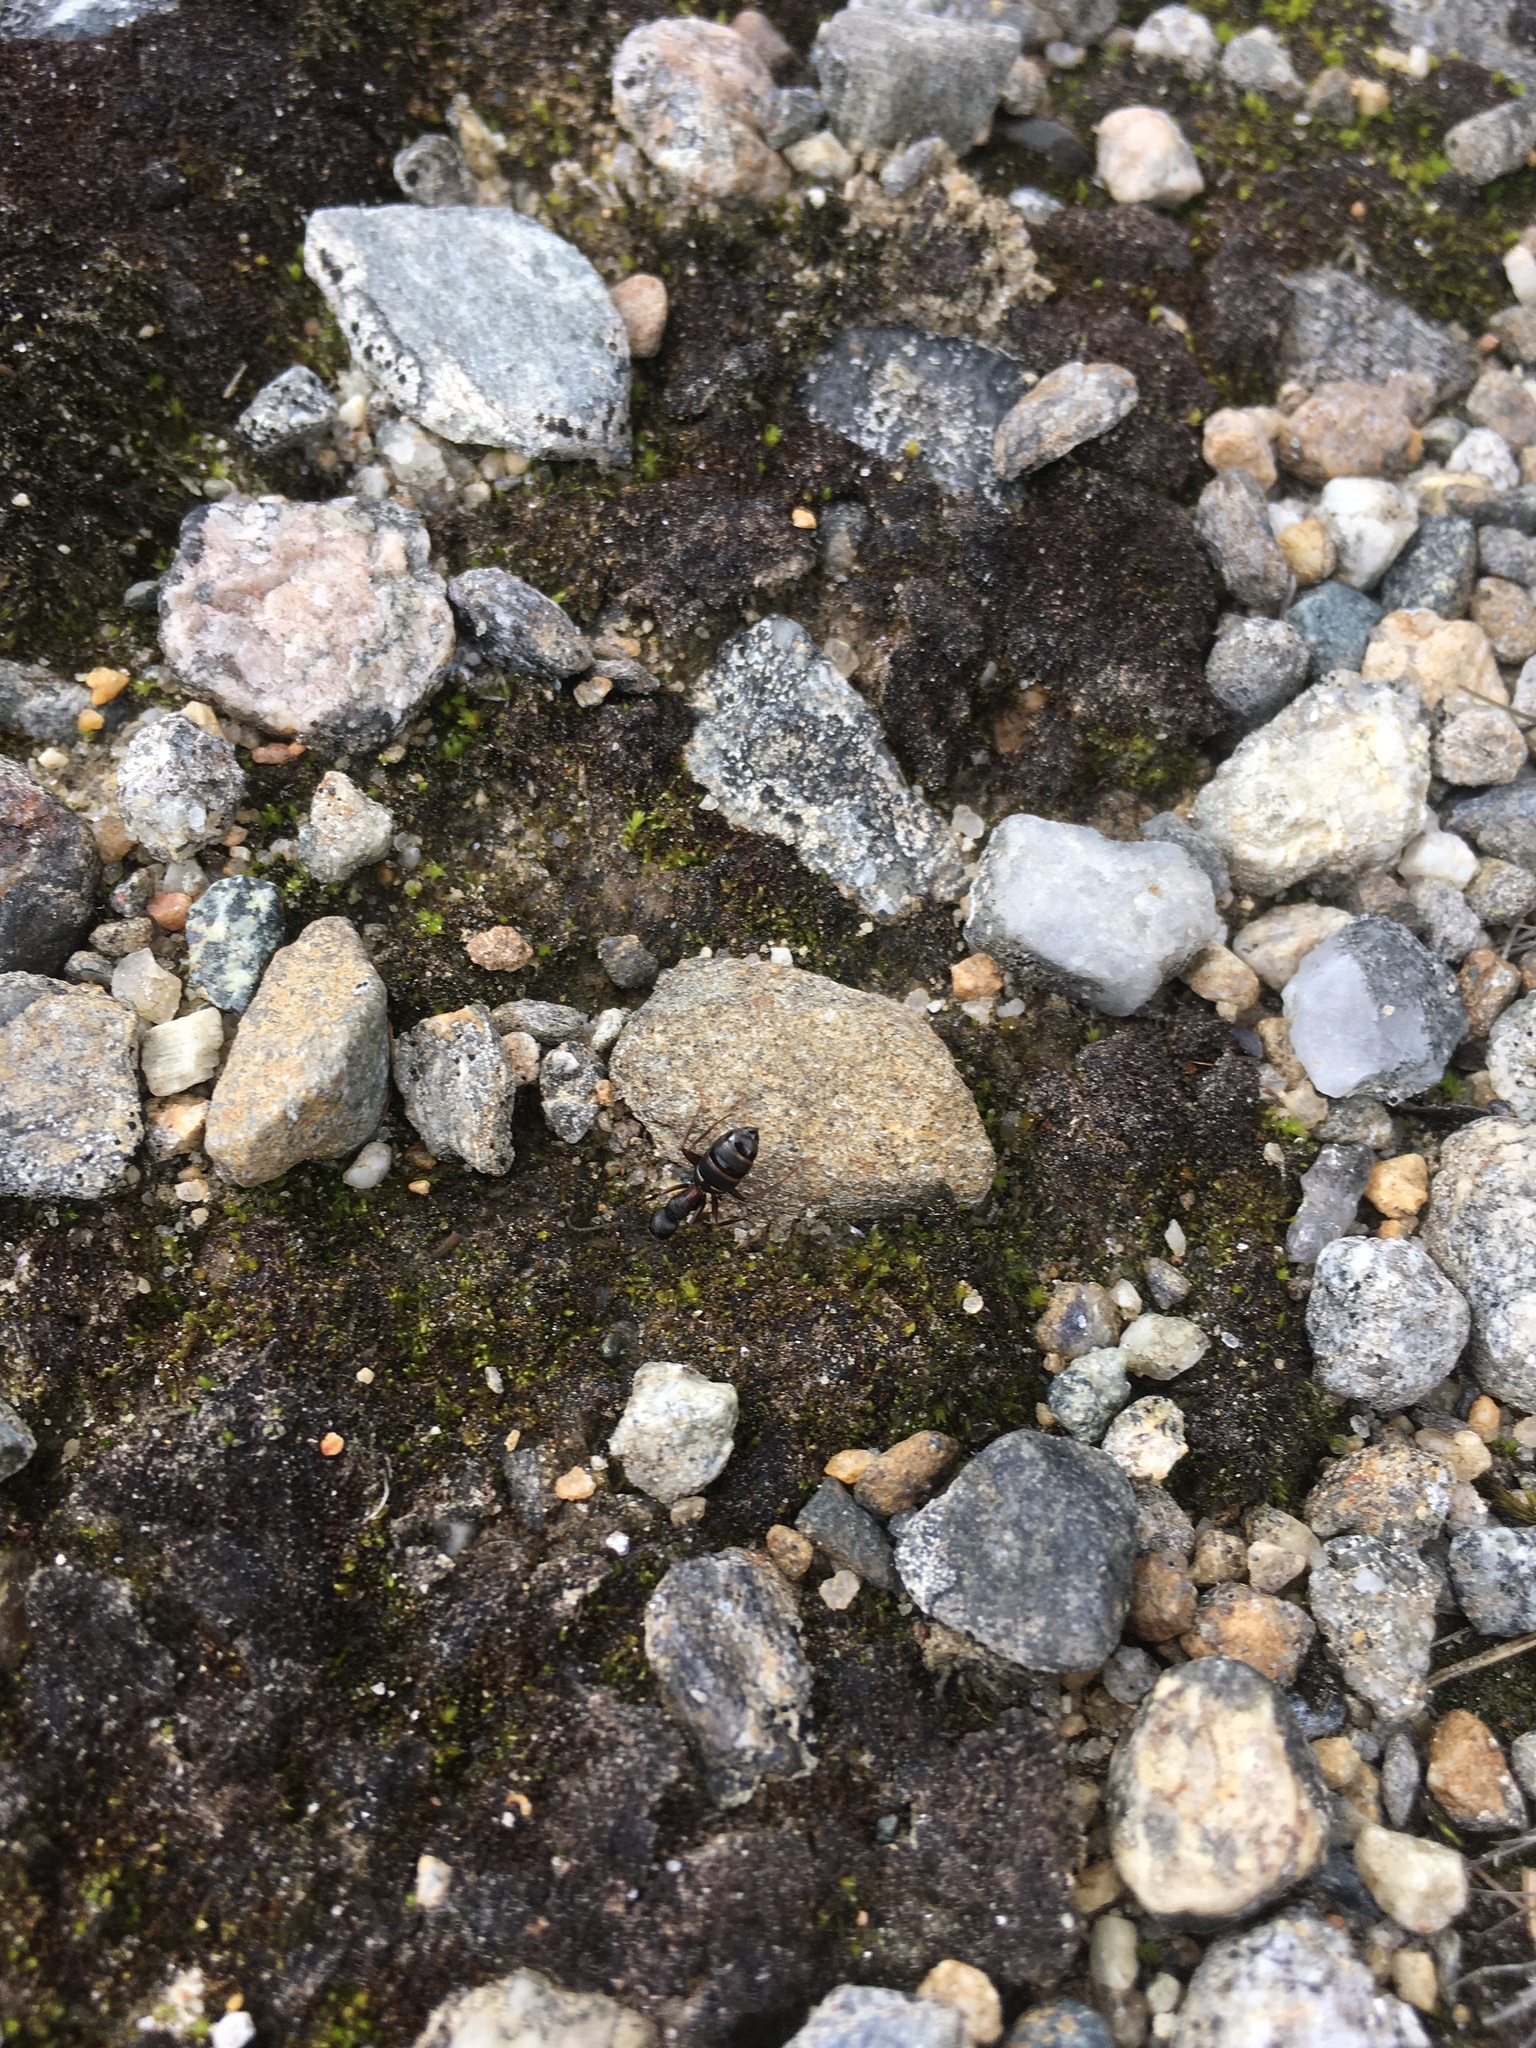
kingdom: Animalia
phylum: Arthropoda
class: Insecta
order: Hymenoptera
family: Formicidae
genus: Camponotus
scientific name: Camponotus herculeanus
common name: Hercules ant
